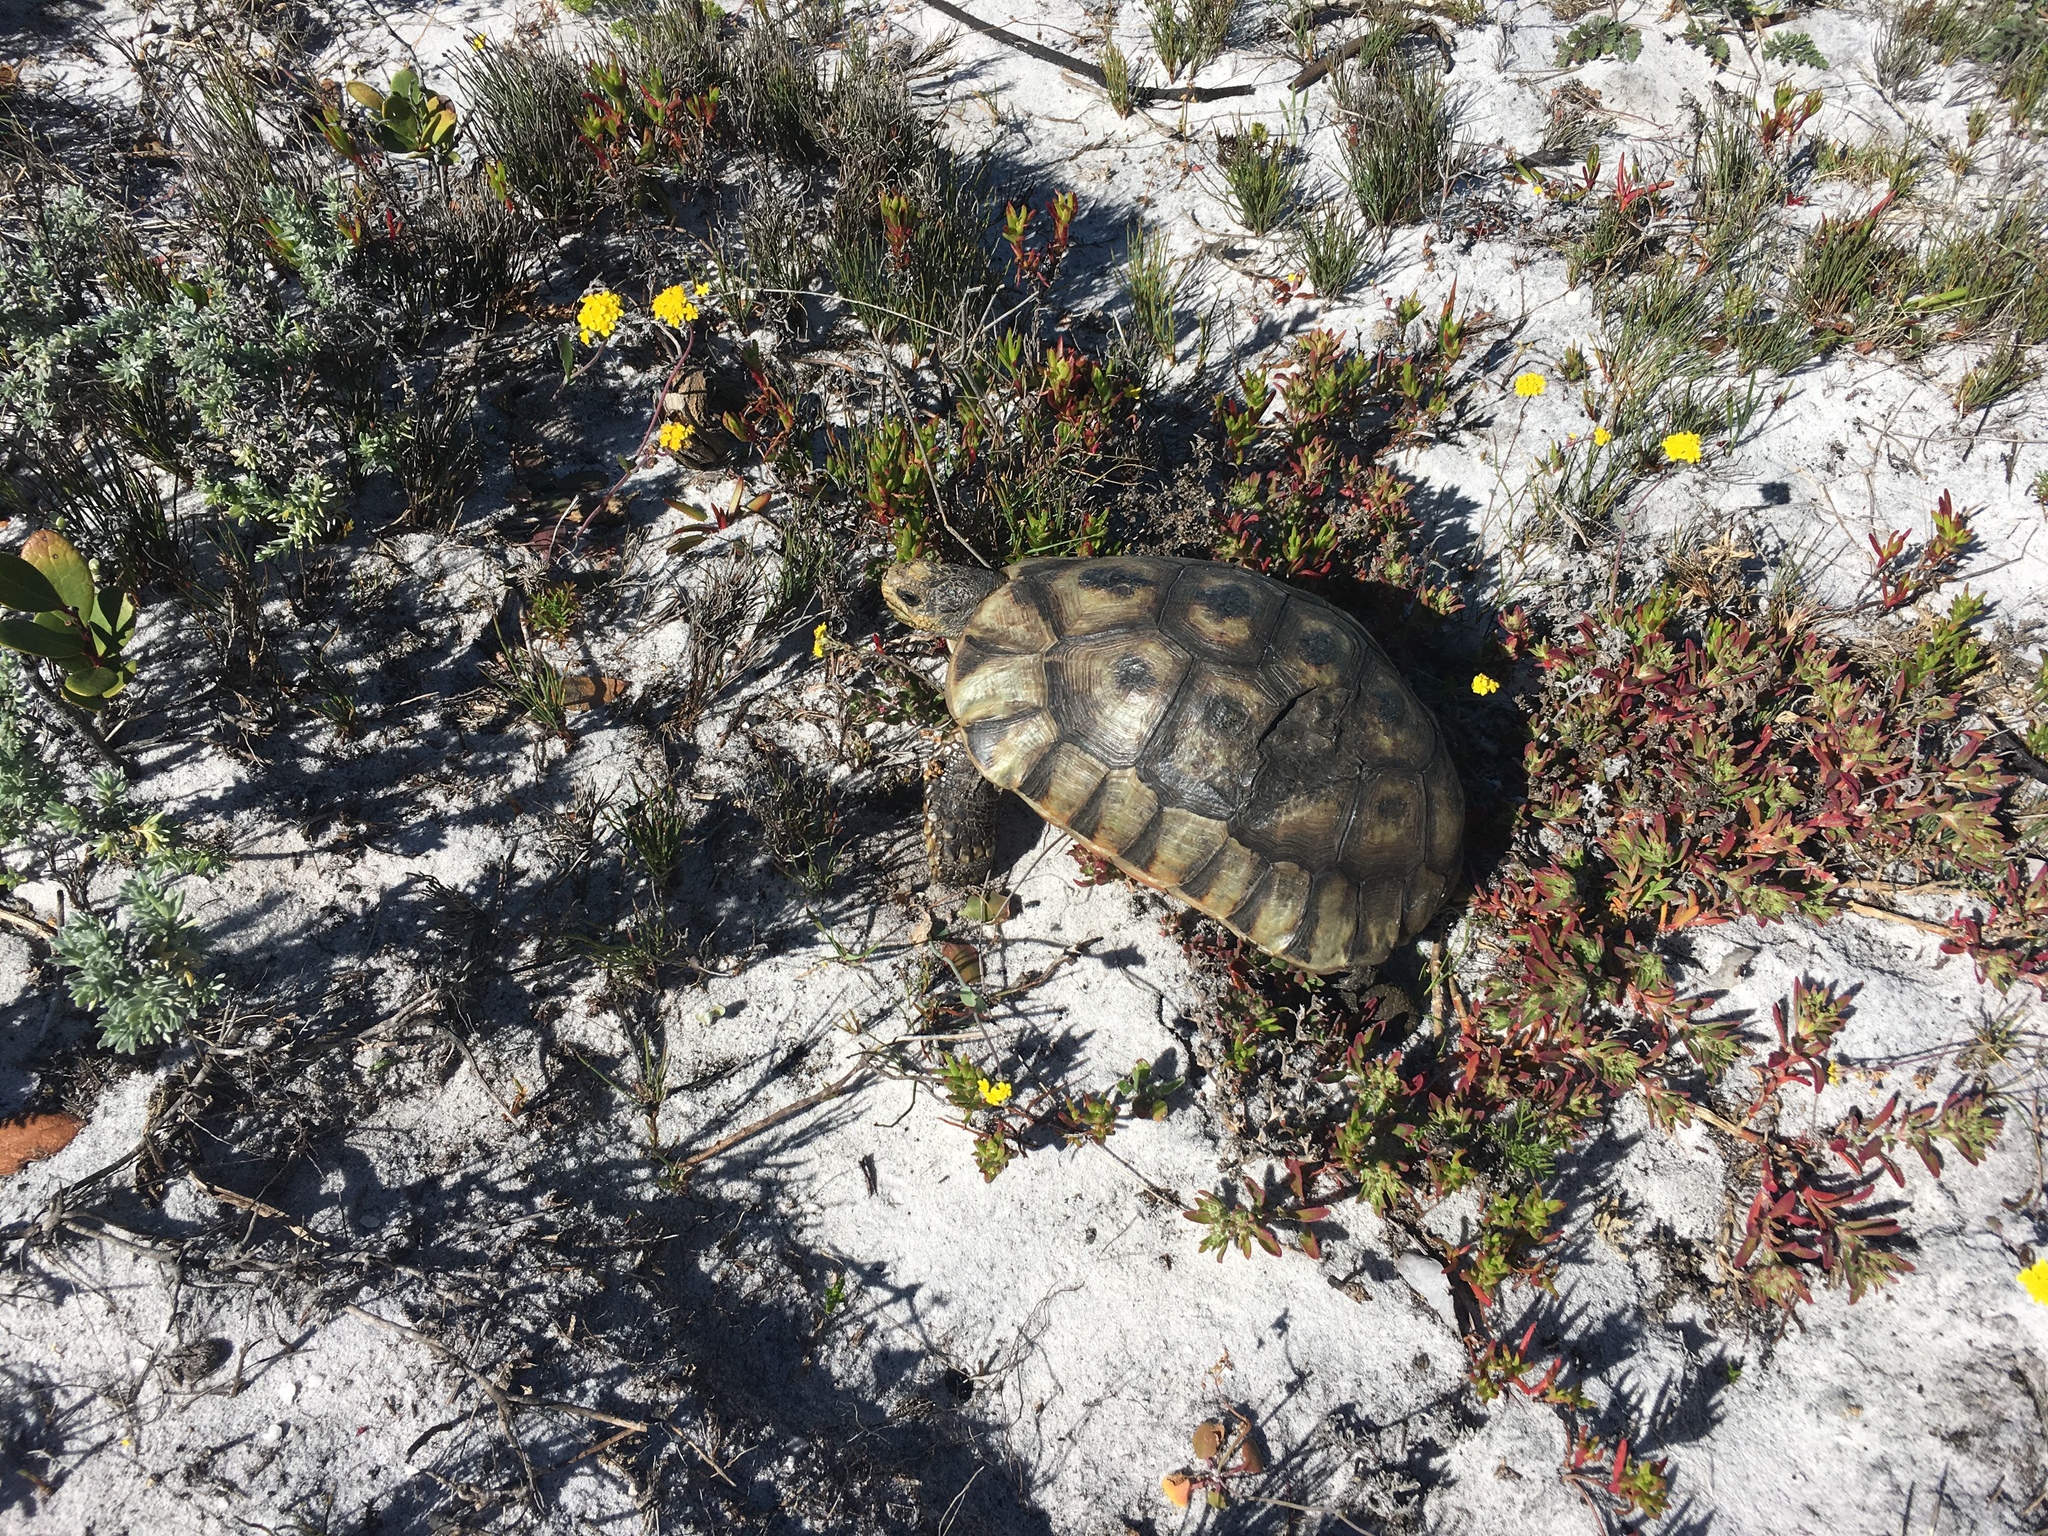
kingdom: Animalia
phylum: Chordata
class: Testudines
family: Testudinidae
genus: Chersina
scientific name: Chersina angulata
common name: South african bowsprit tortoise
